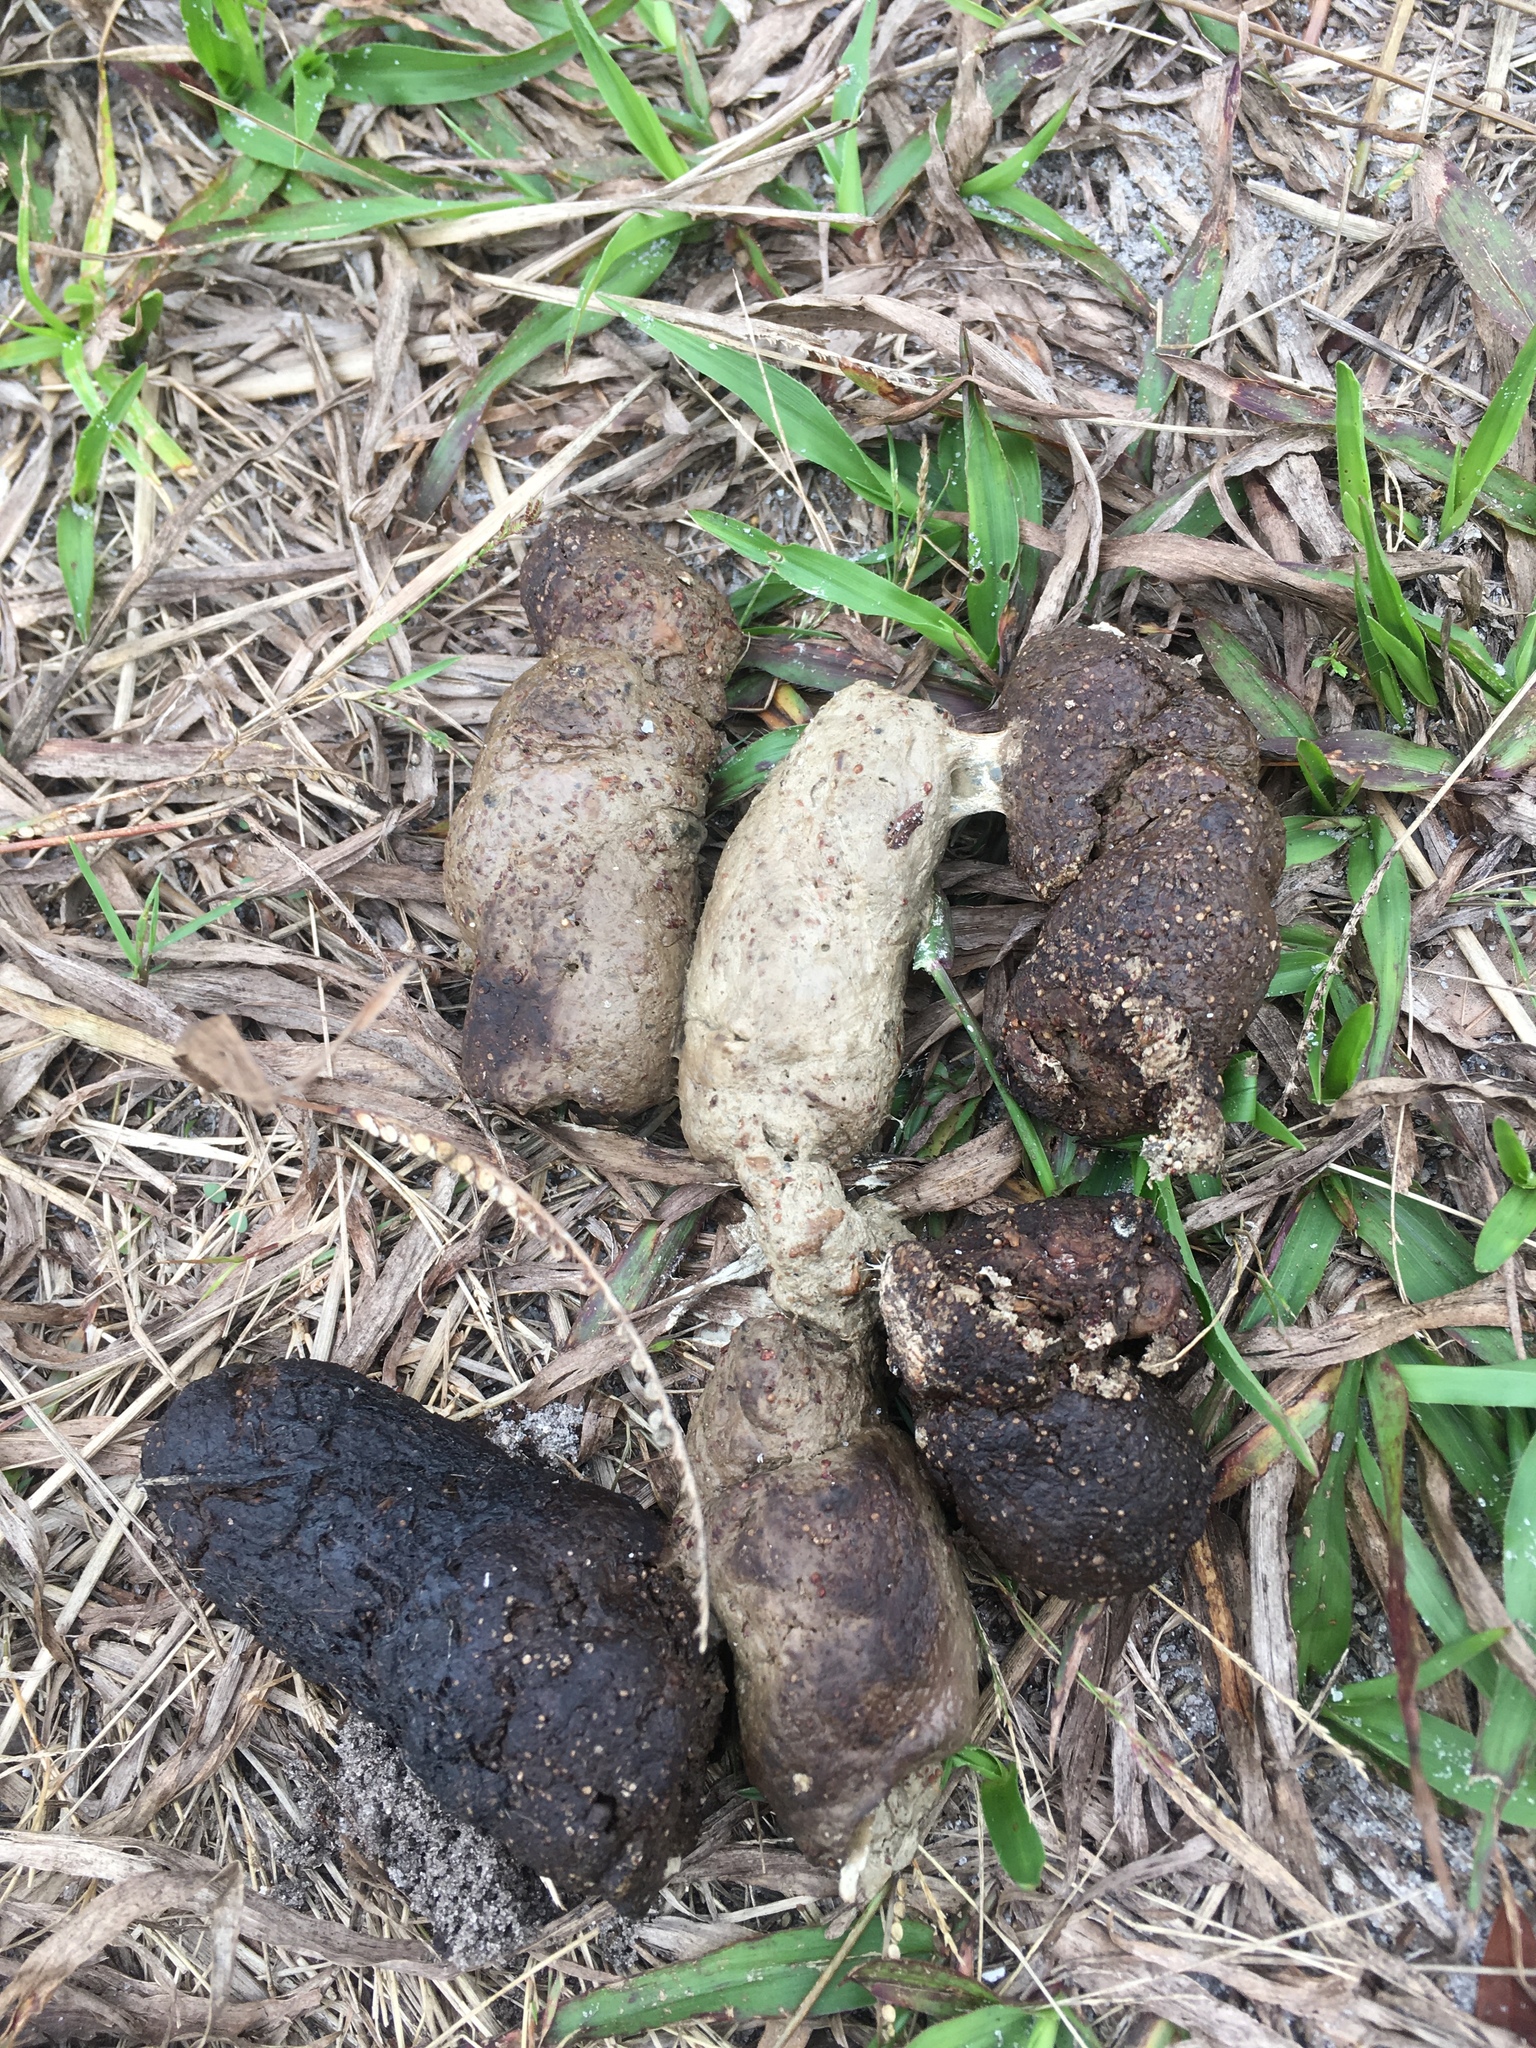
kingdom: Animalia
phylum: Chordata
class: Mammalia
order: Carnivora
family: Procyonidae
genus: Procyon
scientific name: Procyon lotor
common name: Raccoon
